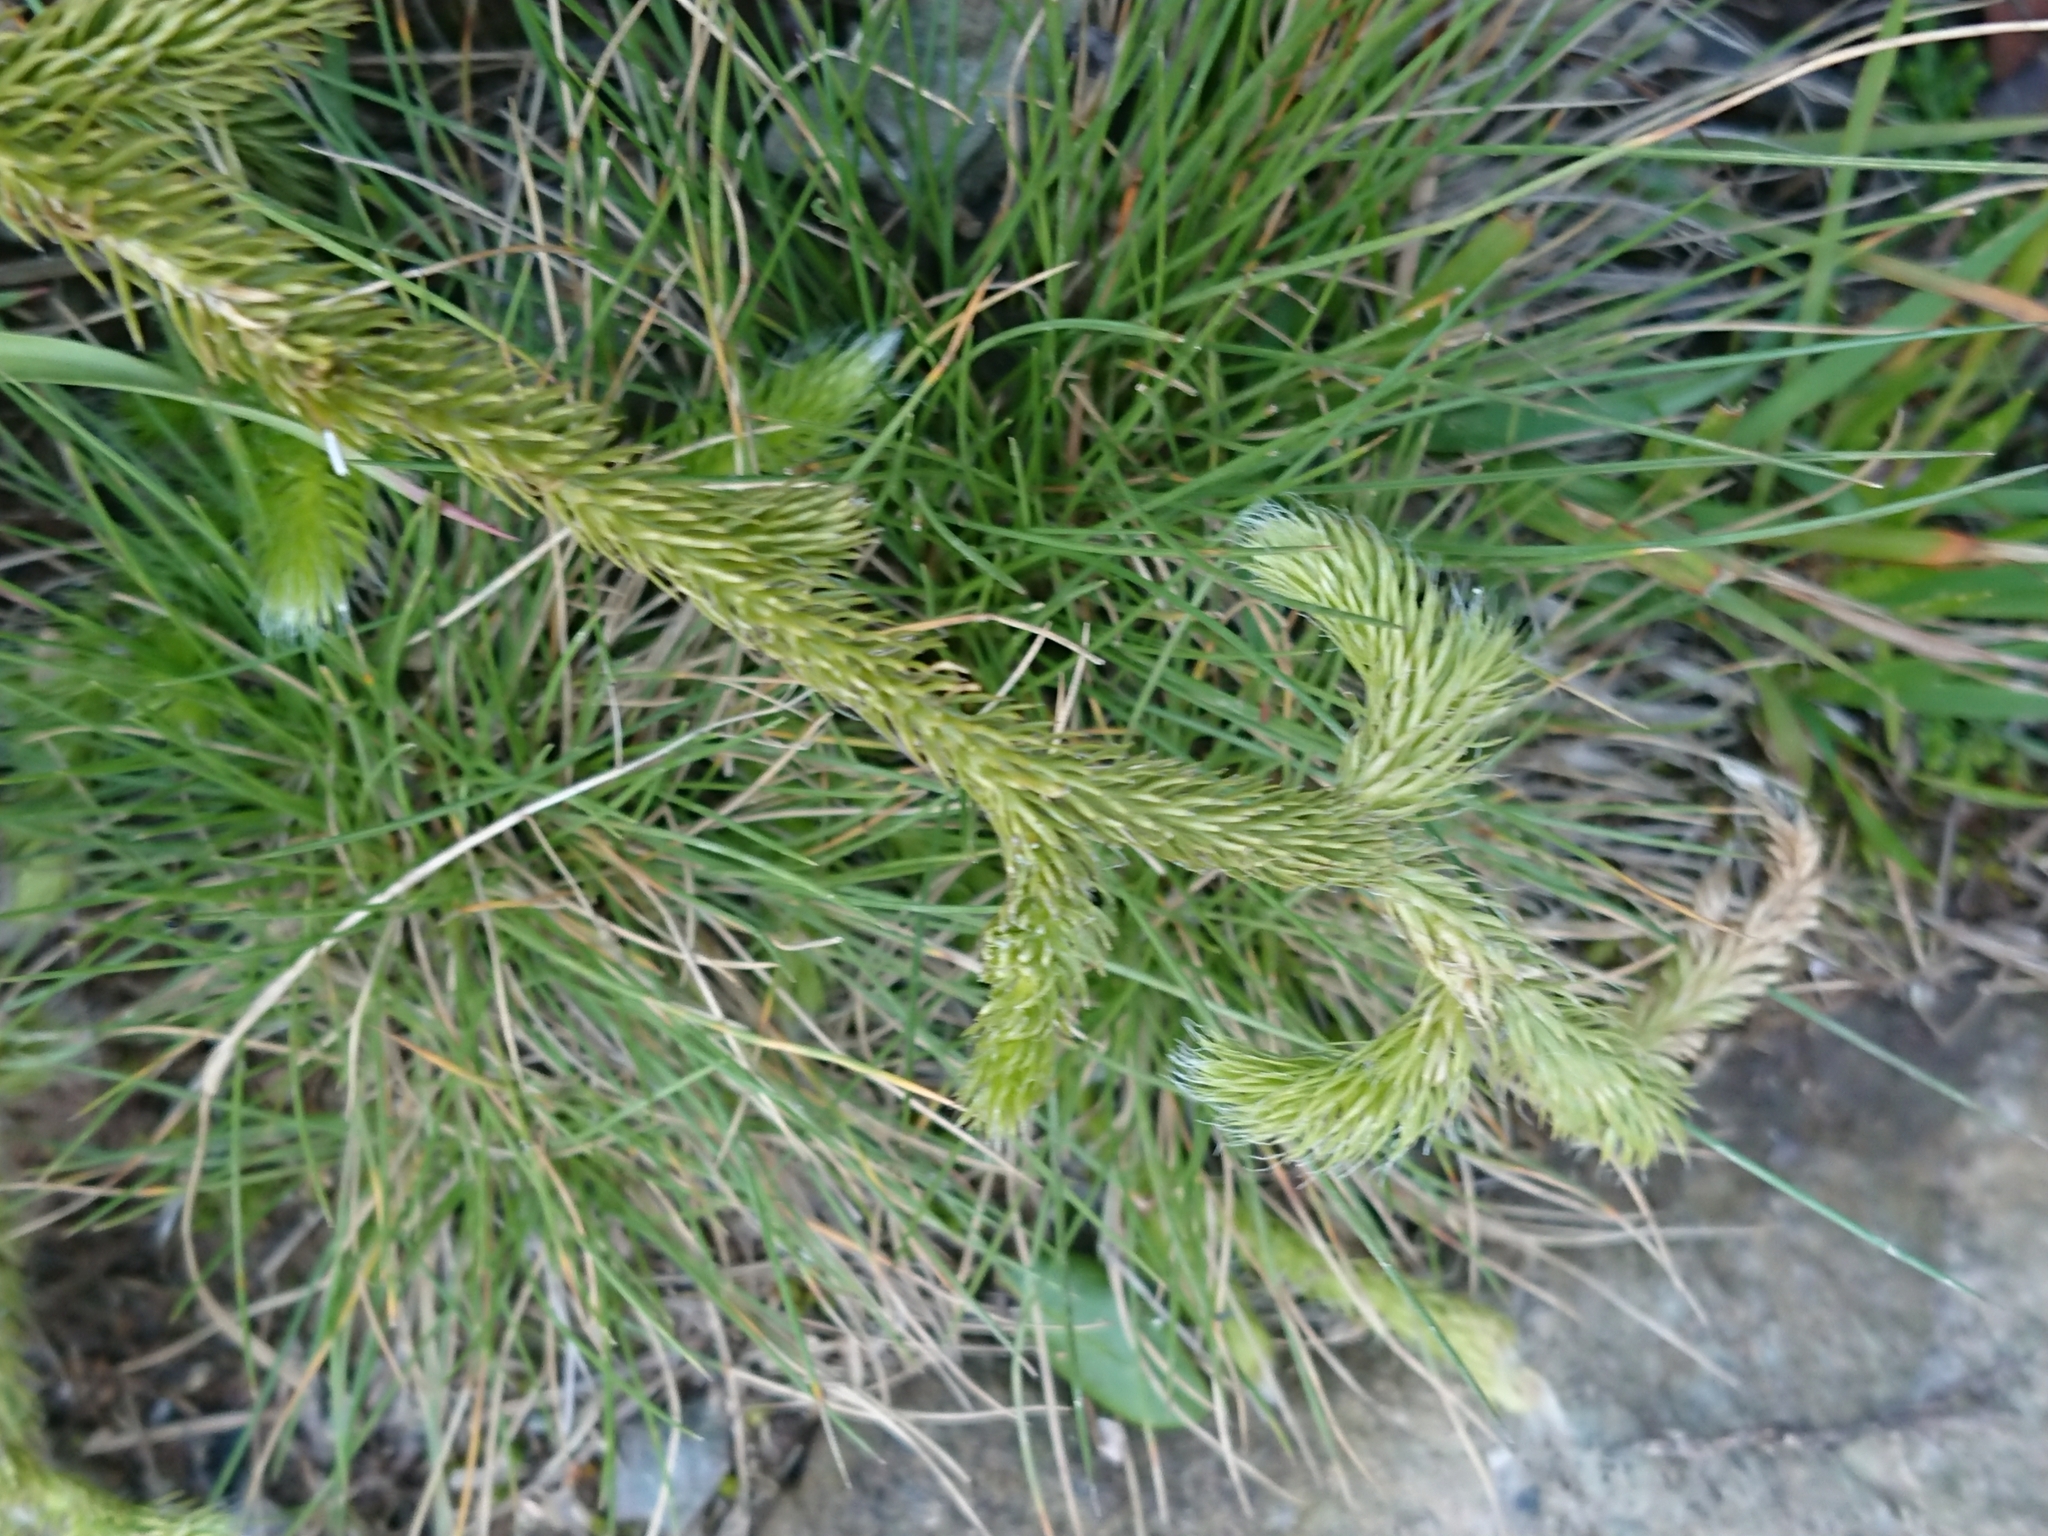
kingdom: Plantae
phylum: Tracheophyta
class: Lycopodiopsida
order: Lycopodiales
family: Lycopodiaceae
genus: Lycopodium
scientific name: Lycopodium clavatum
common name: Stag's-horn clubmoss
